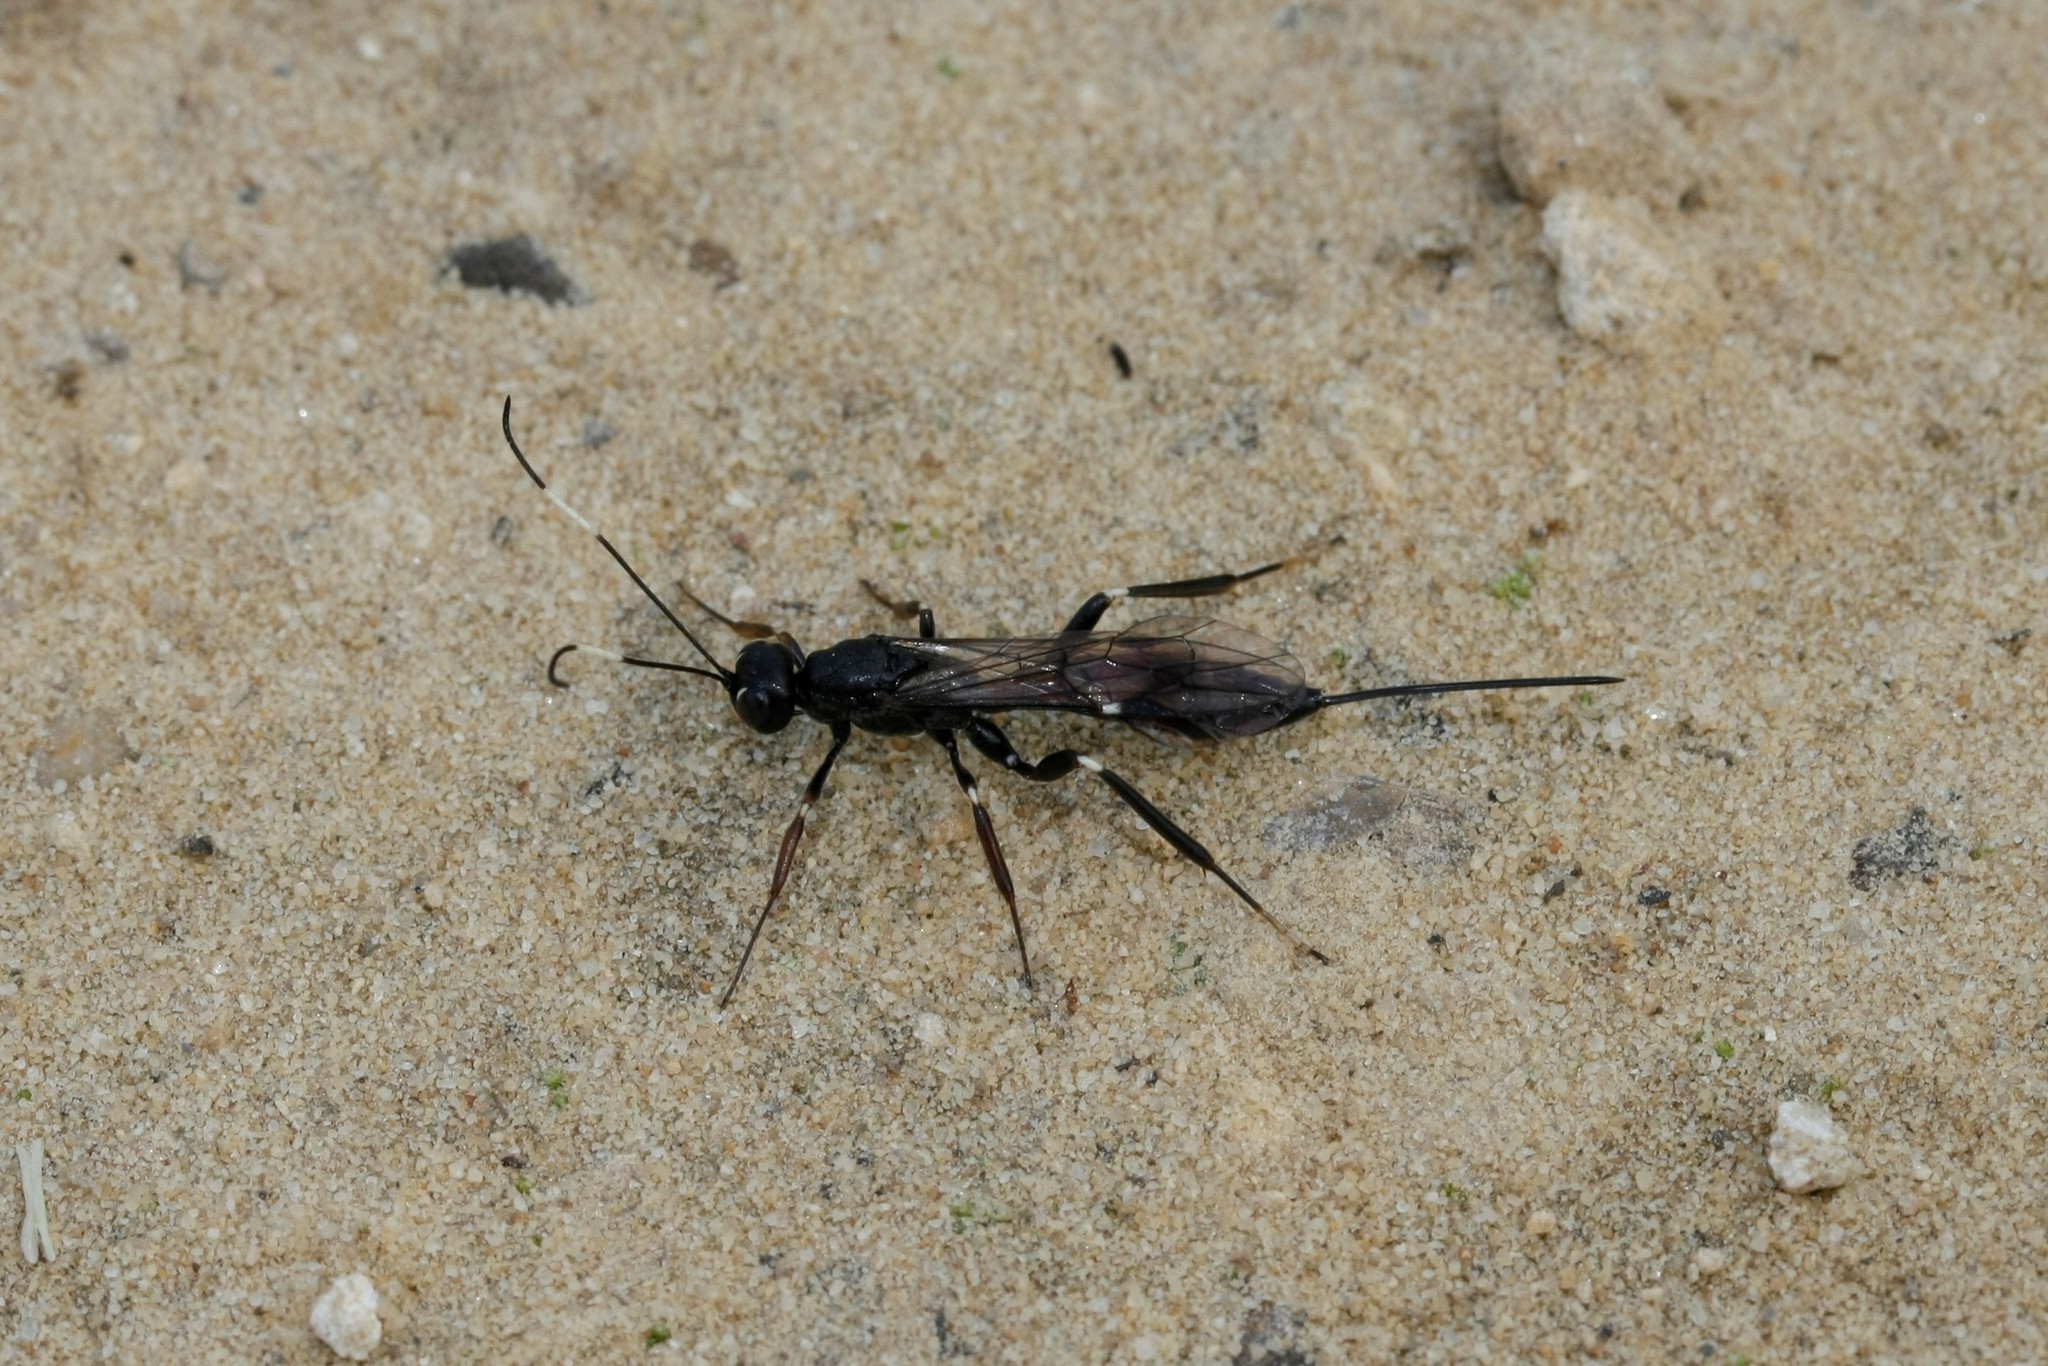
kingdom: Animalia
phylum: Arthropoda
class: Insecta
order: Hymenoptera
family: Ichneumonidae
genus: Xorides
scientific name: Xorides sepulchralis
